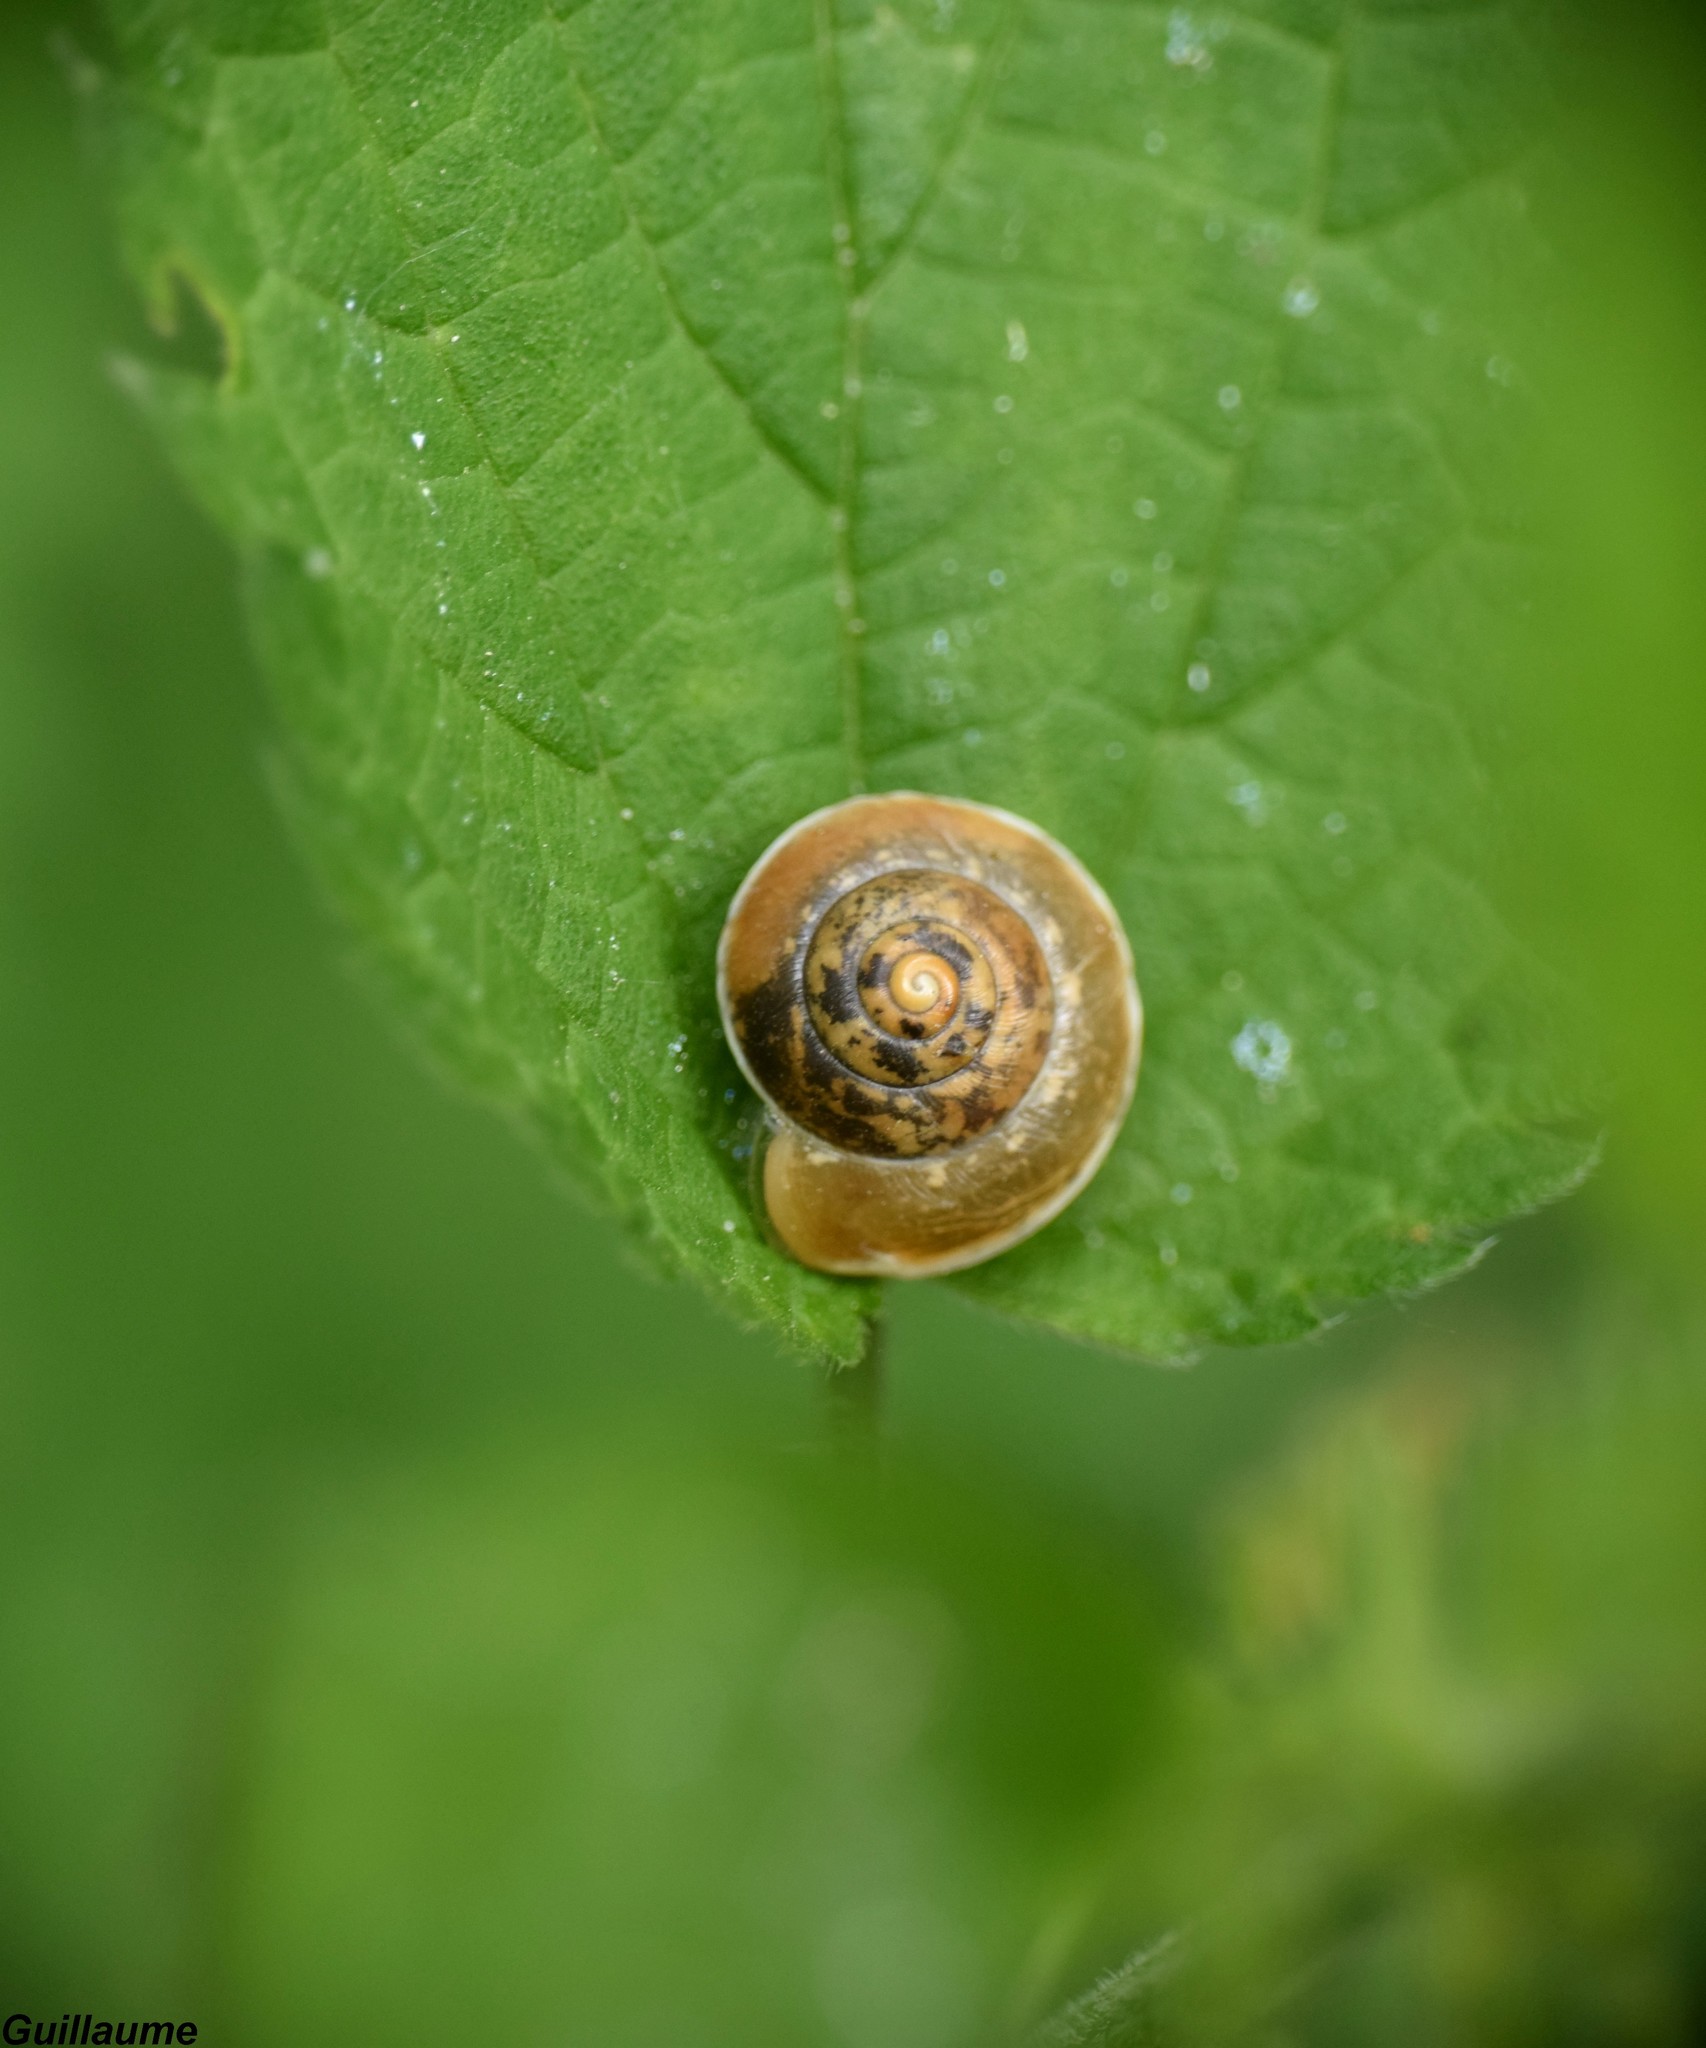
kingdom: Animalia
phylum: Mollusca
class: Gastropoda
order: Stylommatophora
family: Hygromiidae
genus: Hygromia
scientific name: Hygromia cinctella
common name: Girdled snail
